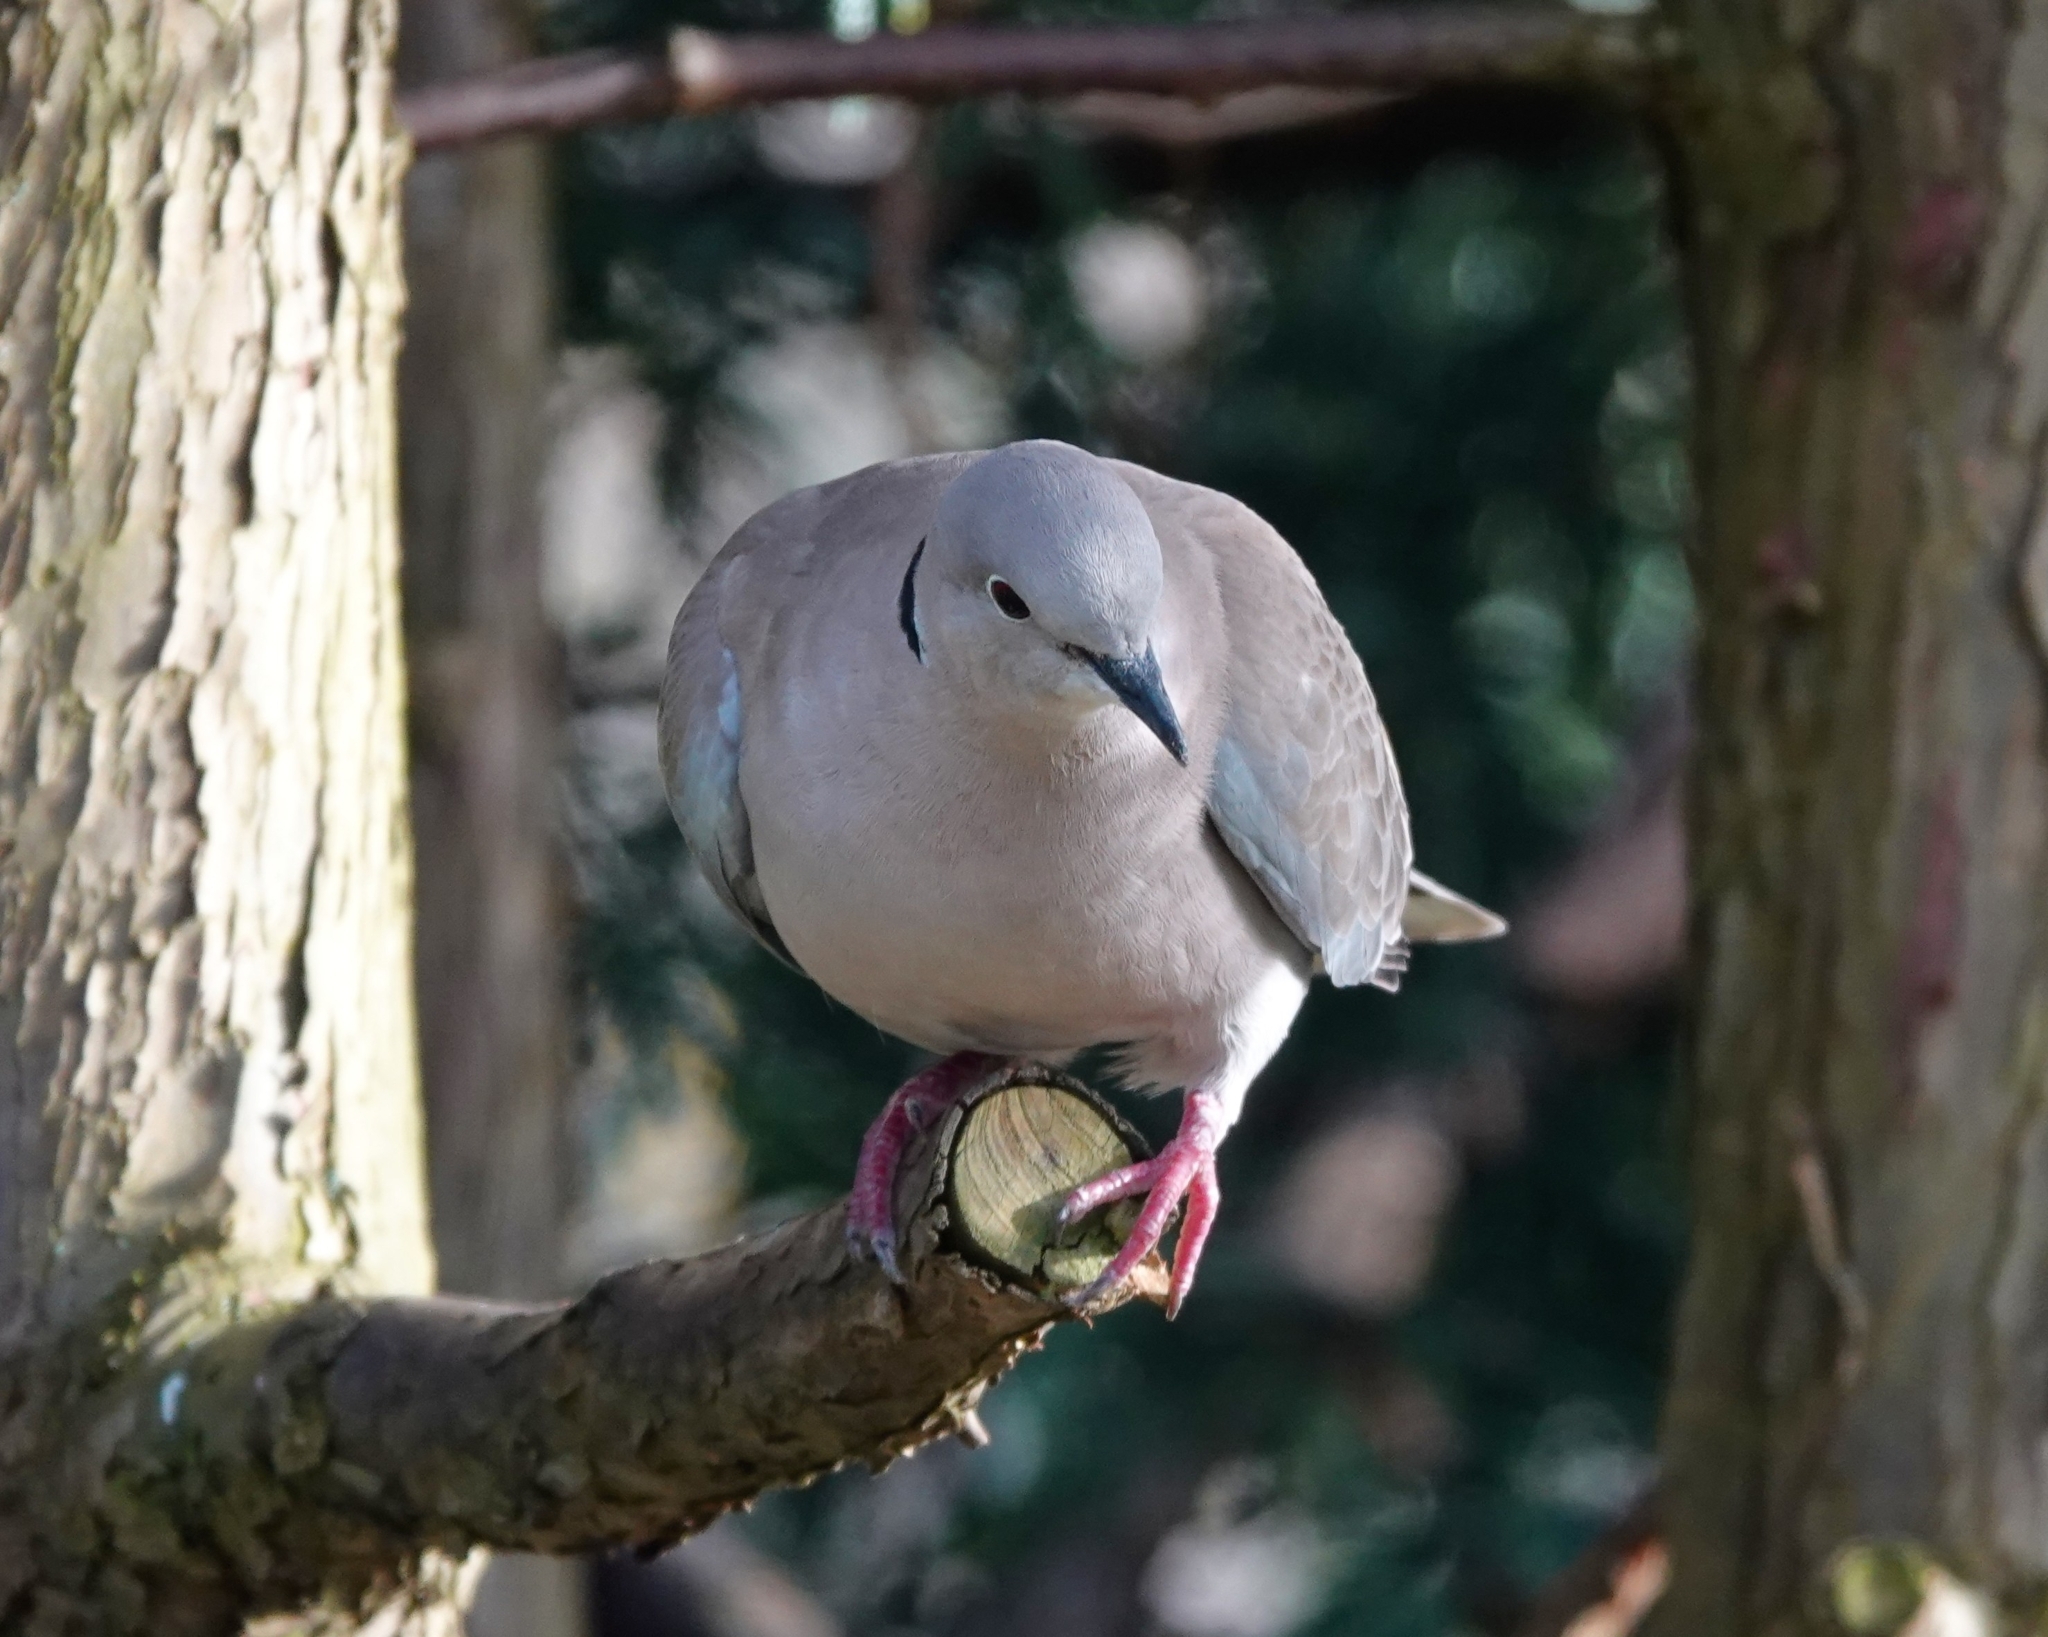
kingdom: Animalia
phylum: Chordata
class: Aves
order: Columbiformes
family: Columbidae
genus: Streptopelia
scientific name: Streptopelia decaocto
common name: Eurasian collared dove
